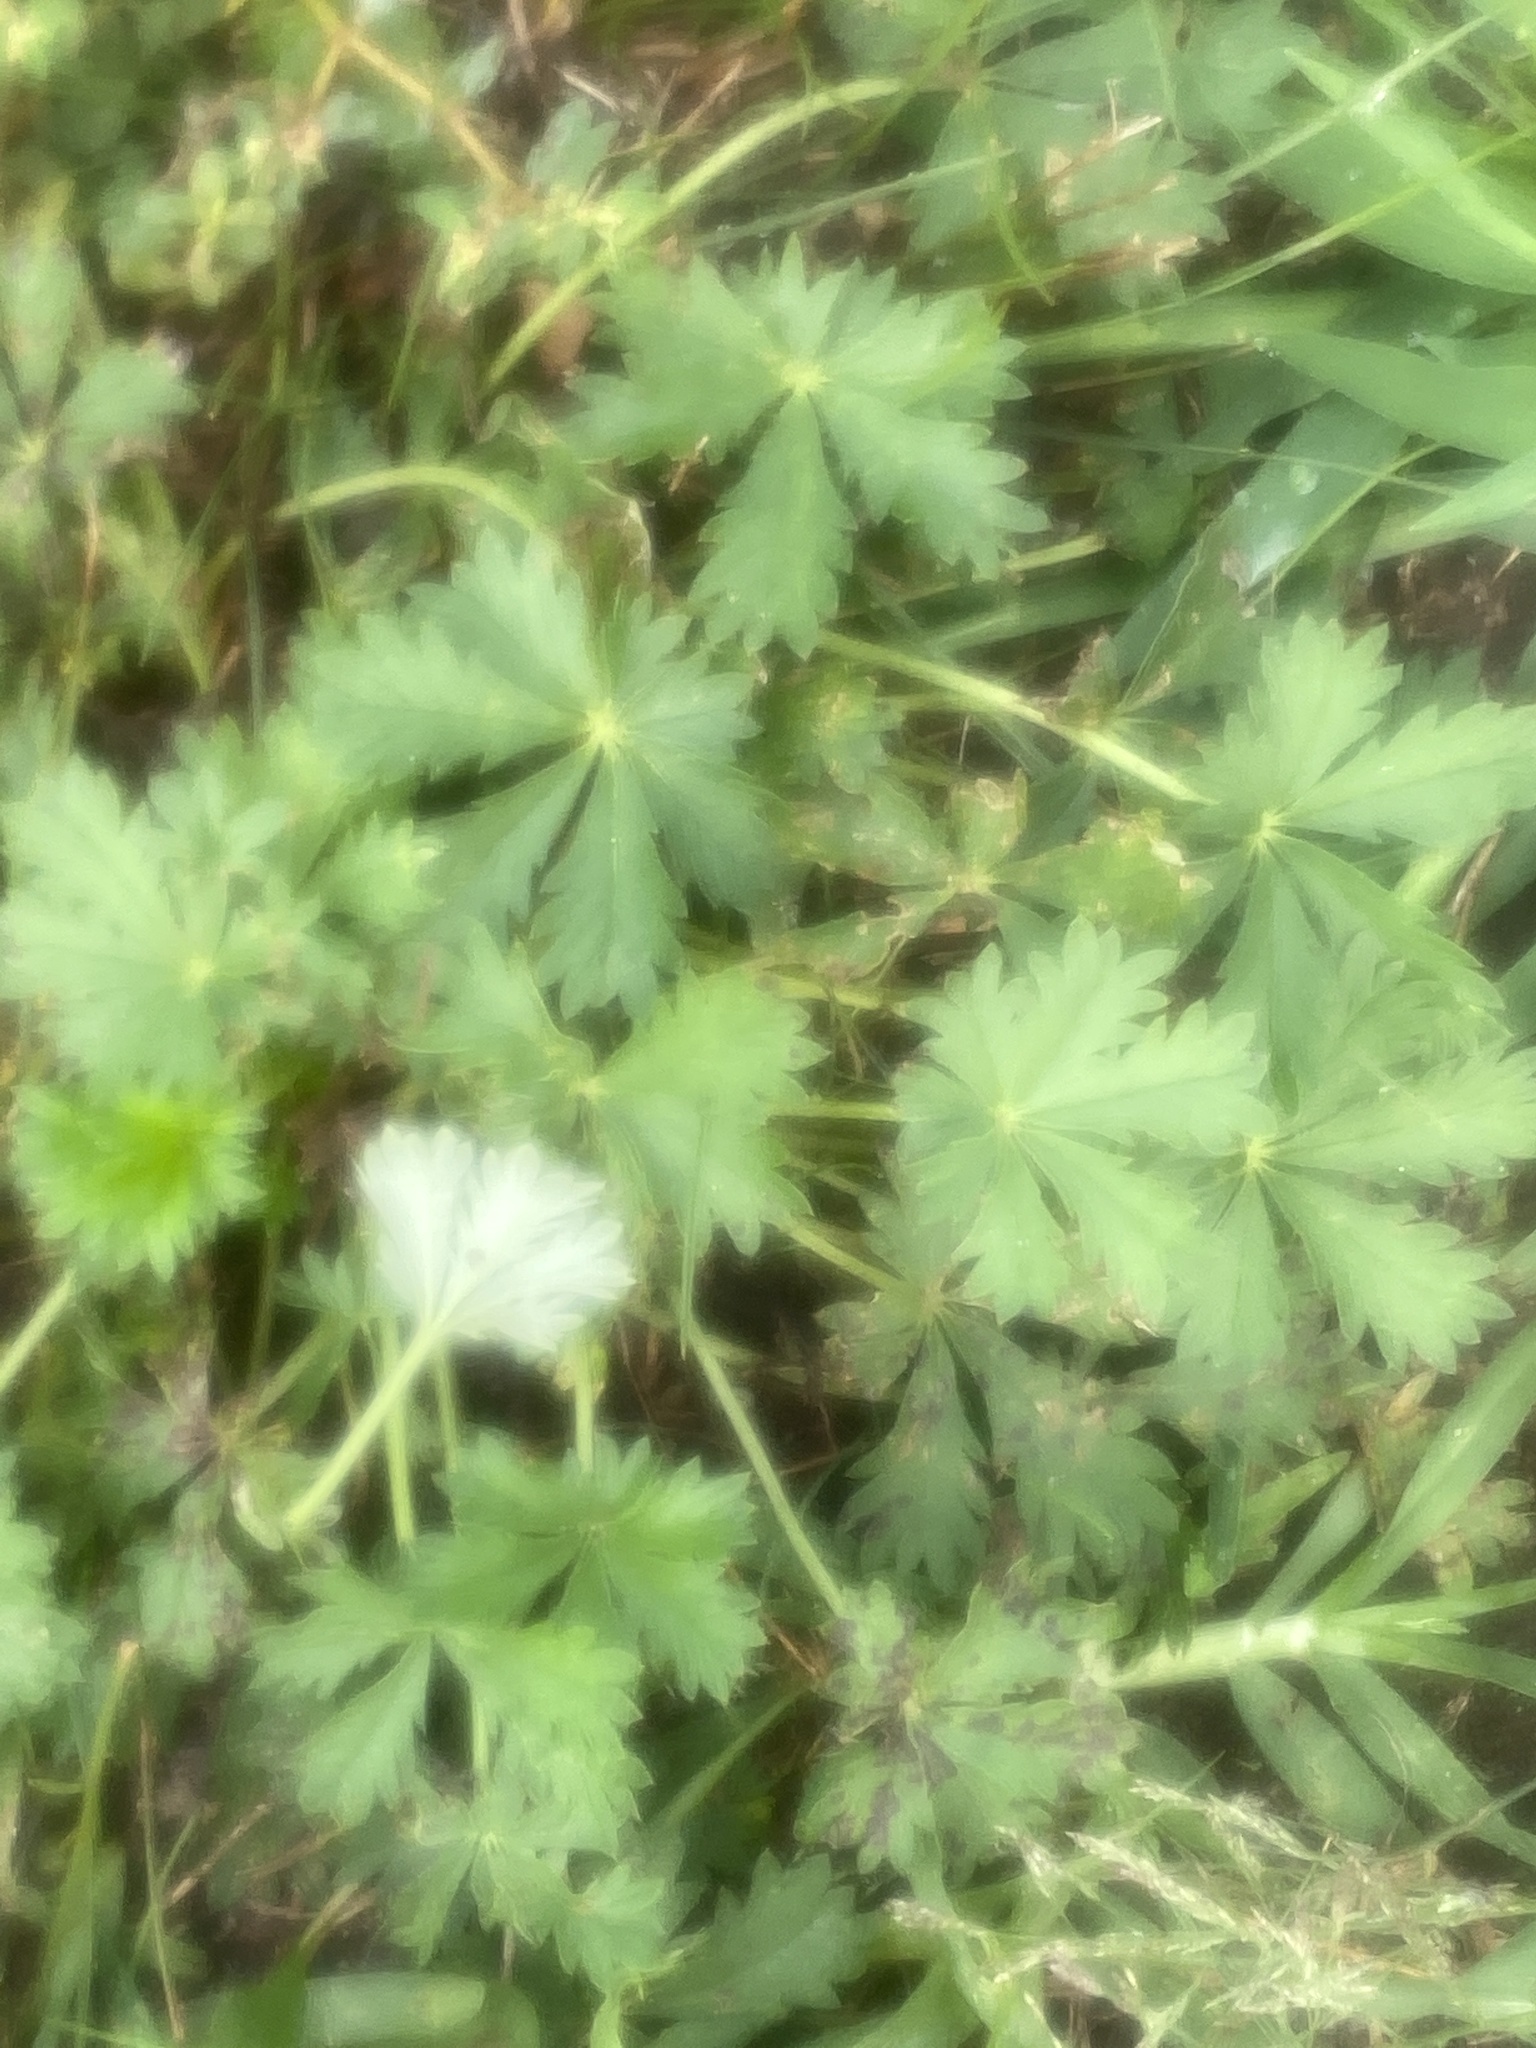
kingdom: Plantae
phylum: Tracheophyta
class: Magnoliopsida
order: Rosales
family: Rosaceae
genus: Potentilla
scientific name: Potentilla argentea
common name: Hoary cinquefoil
